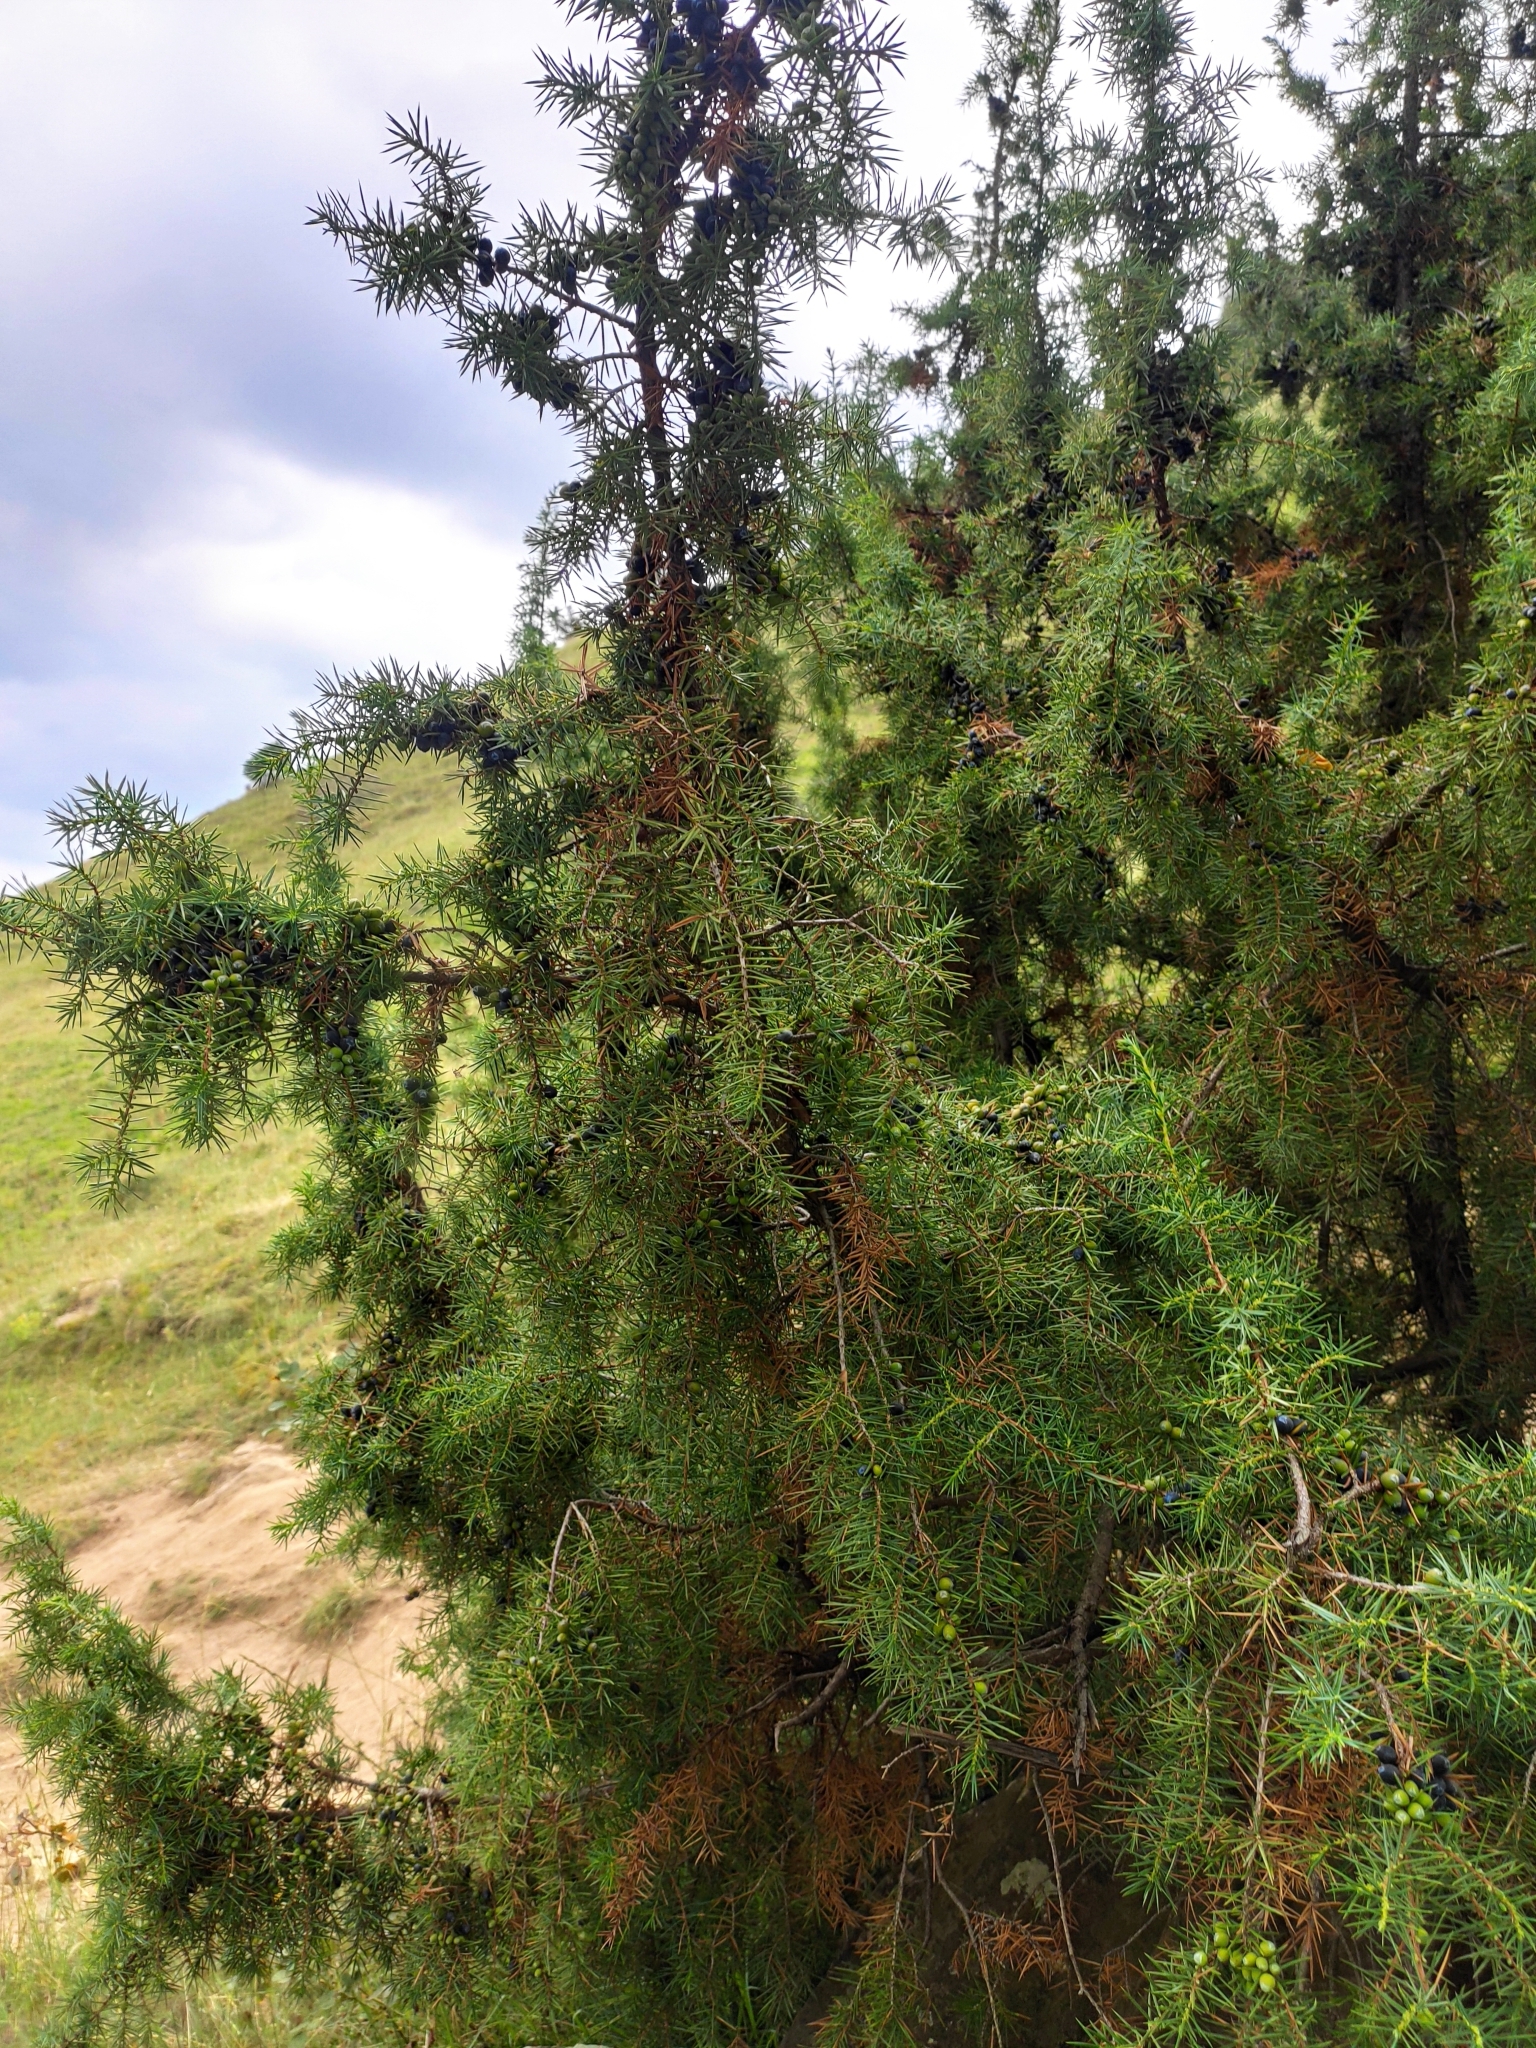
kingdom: Plantae
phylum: Tracheophyta
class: Pinopsida
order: Pinales
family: Cupressaceae
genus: Juniperus
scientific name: Juniperus communis
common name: Common juniper
